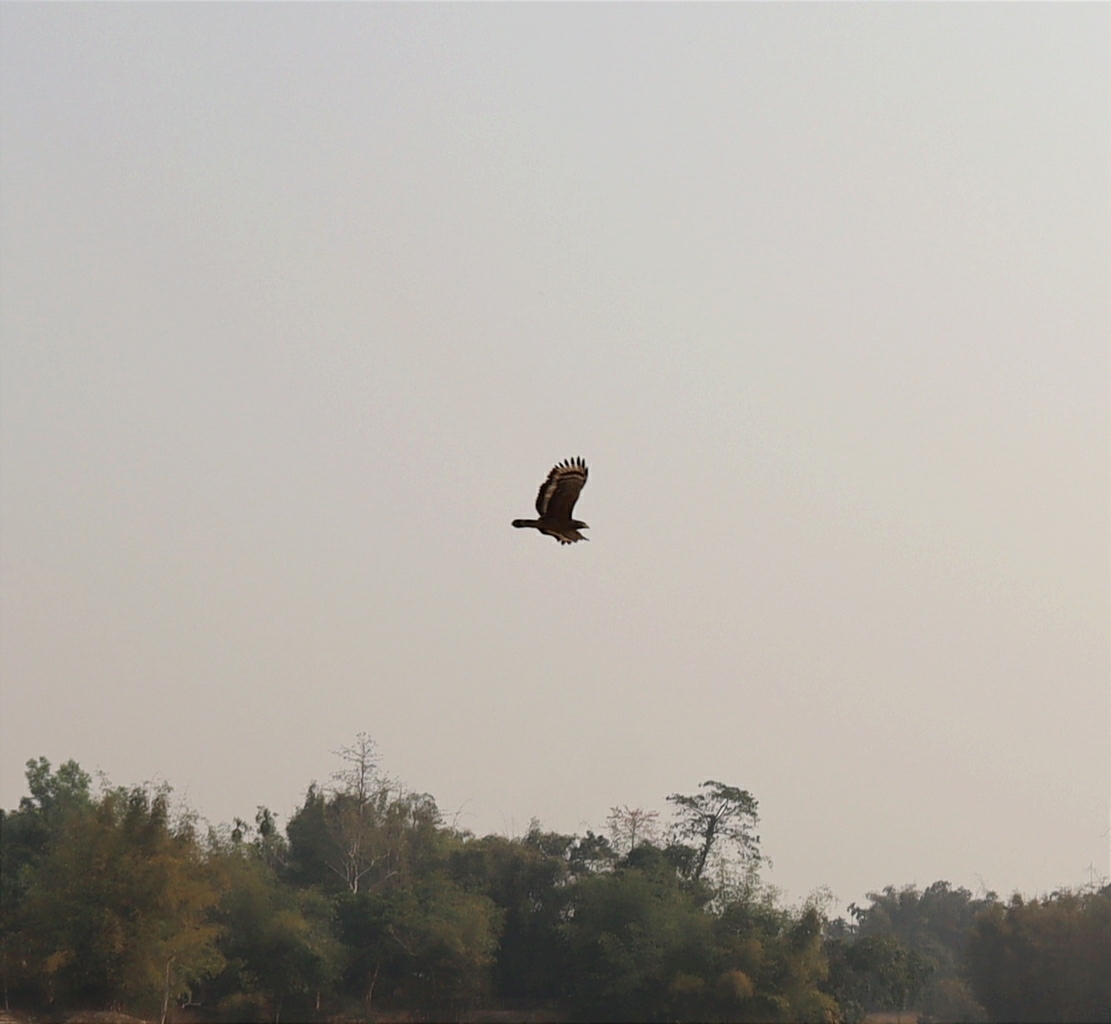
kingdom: Animalia
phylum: Chordata
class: Aves
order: Accipitriformes
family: Accipitridae
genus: Spilornis
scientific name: Spilornis cheela
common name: Crested serpent eagle
